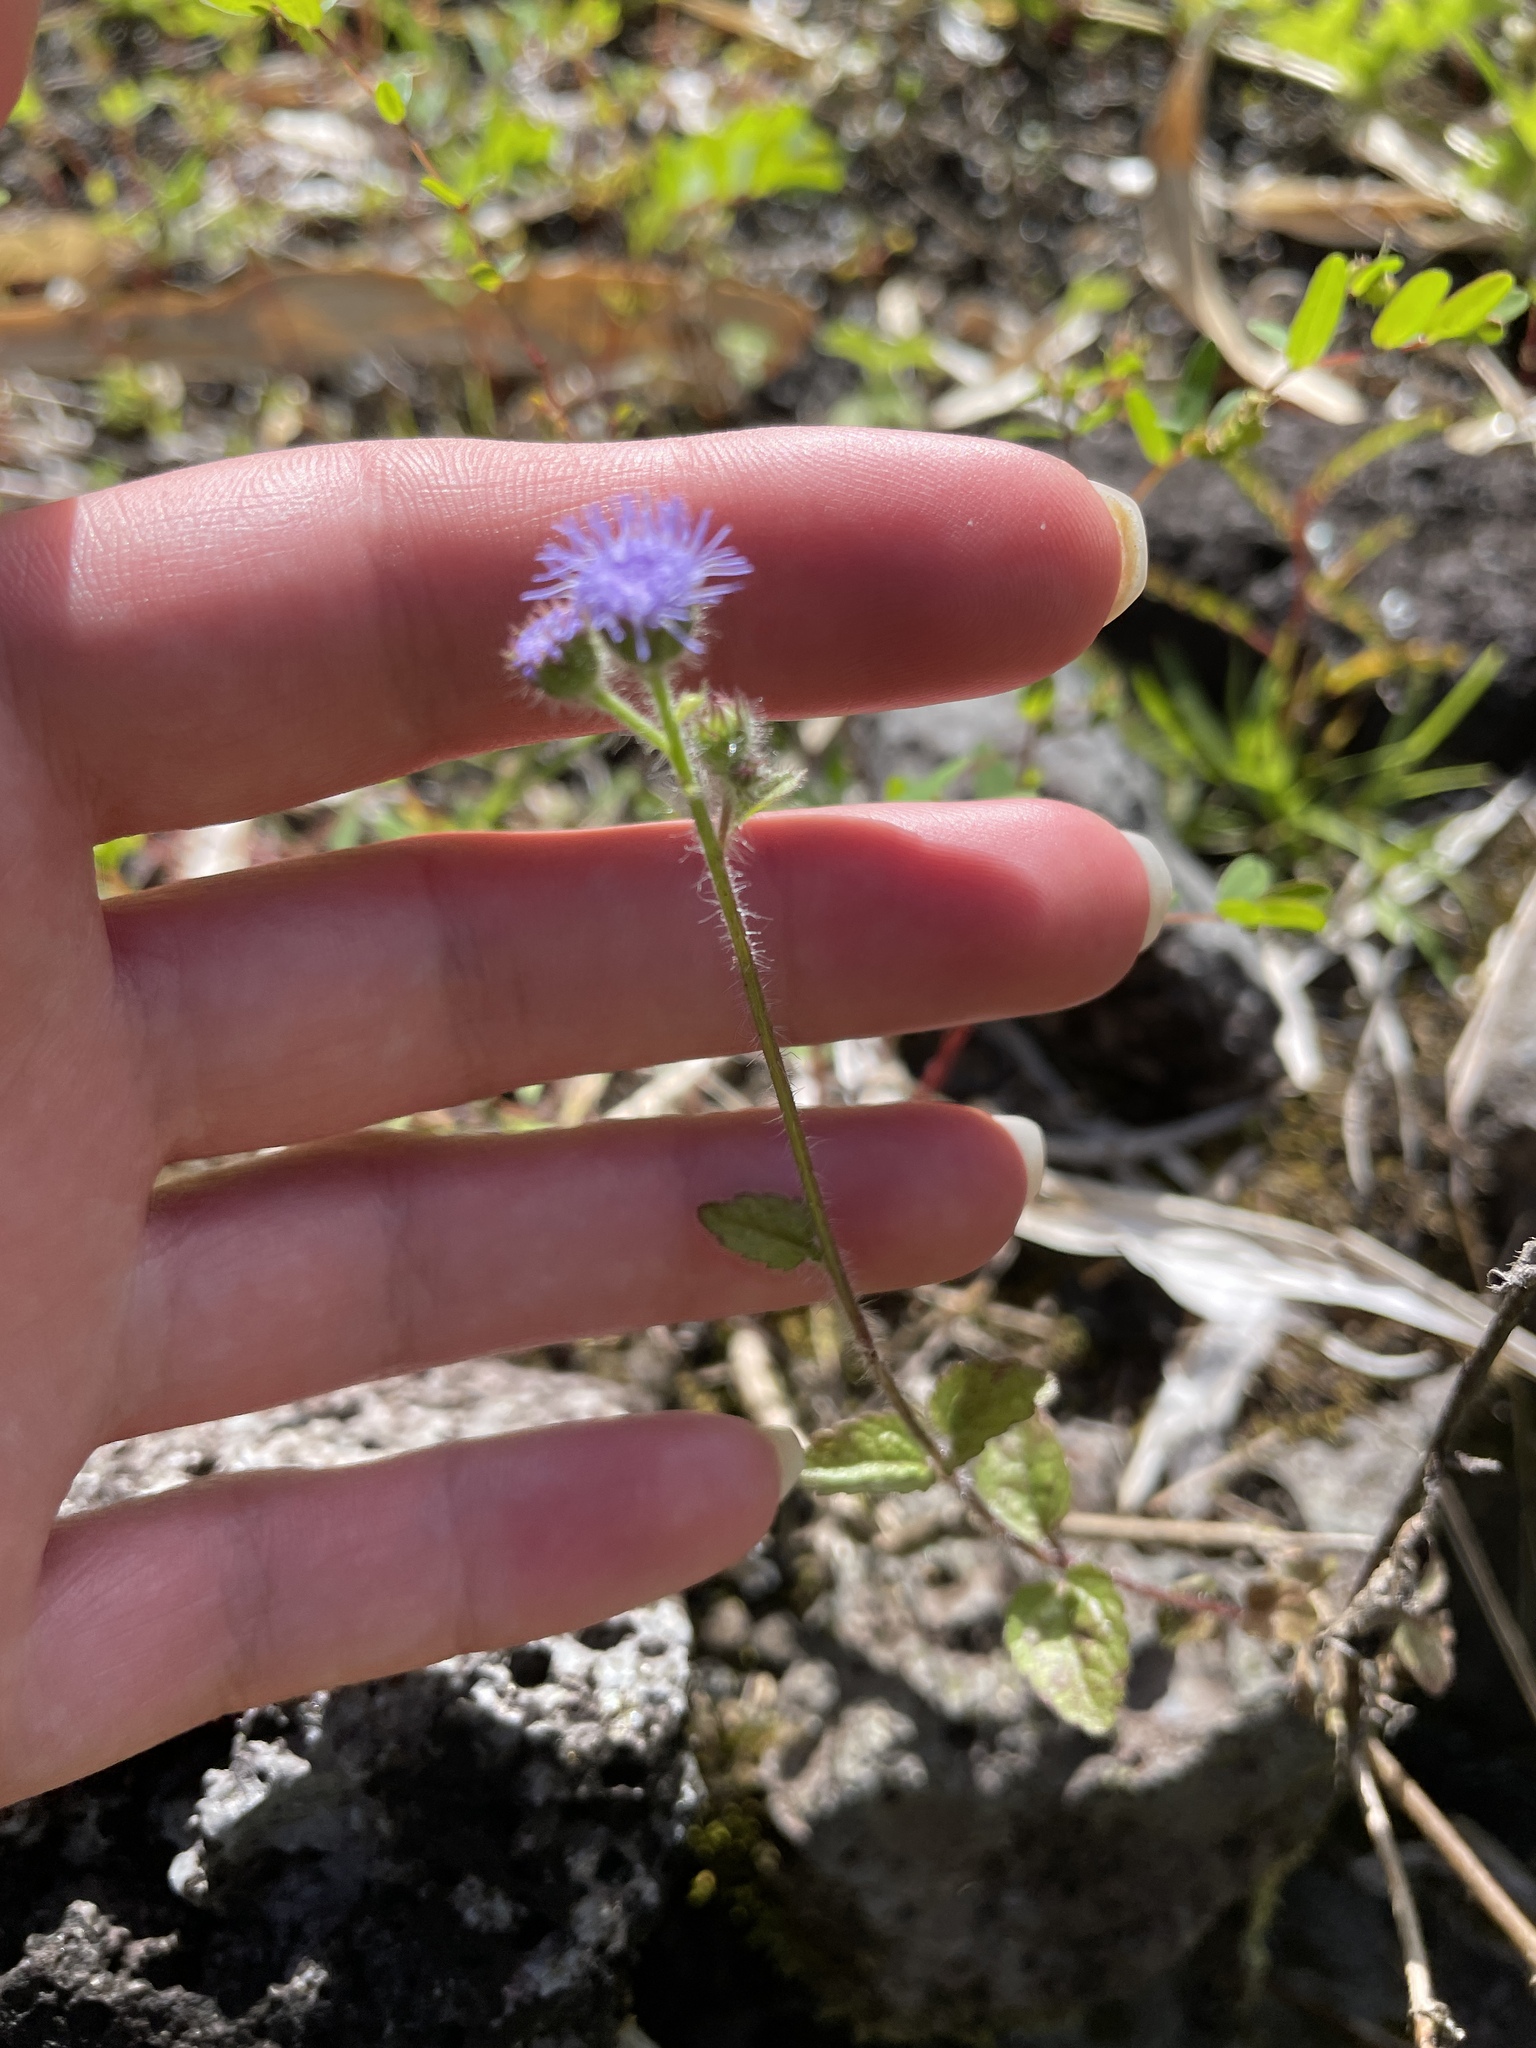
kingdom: Plantae
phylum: Tracheophyta
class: Magnoliopsida
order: Asterales
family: Asteraceae
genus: Ageratum
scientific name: Ageratum houstonianum
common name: Bluemink
